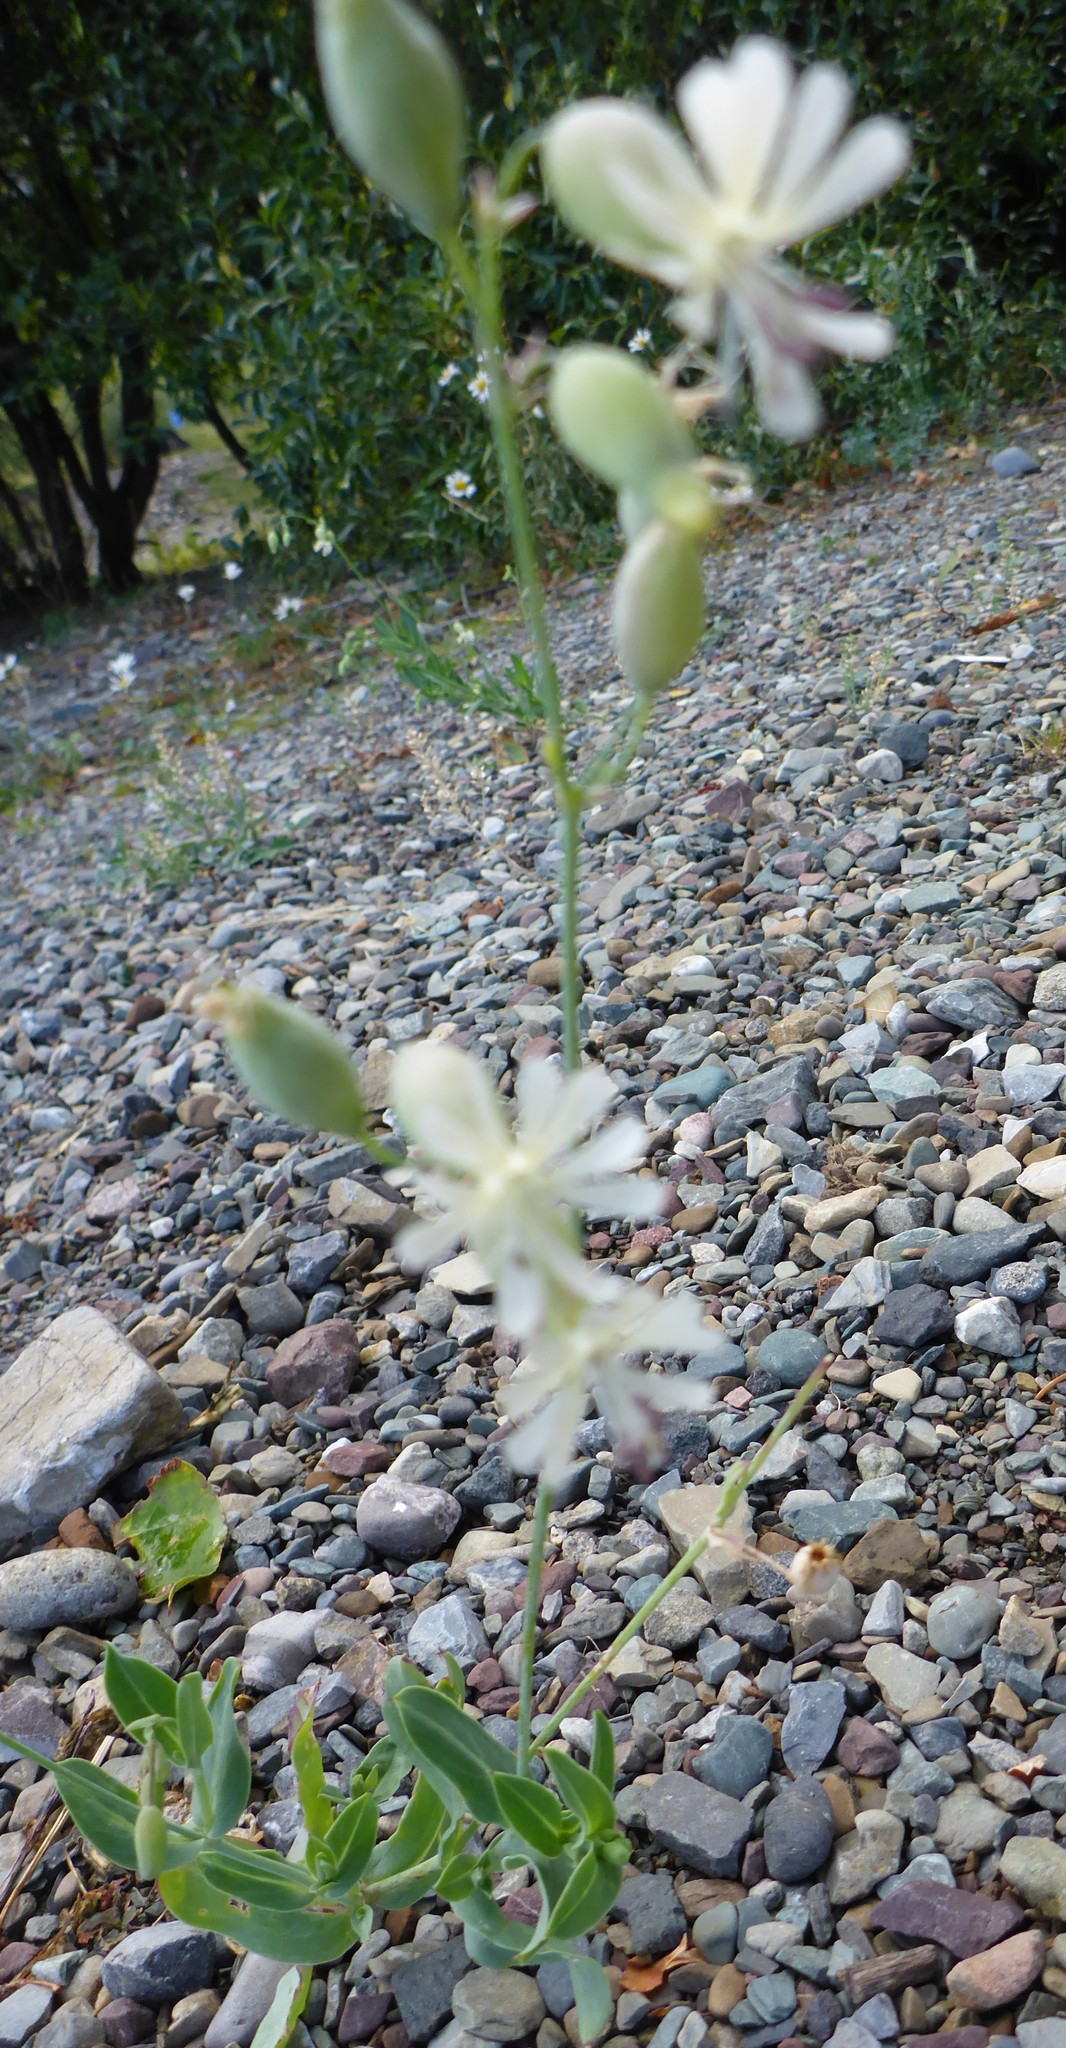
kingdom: Plantae
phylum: Tracheophyta
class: Magnoliopsida
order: Caryophyllales
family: Caryophyllaceae
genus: Silene
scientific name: Silene csereii
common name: Balkan catchfly
